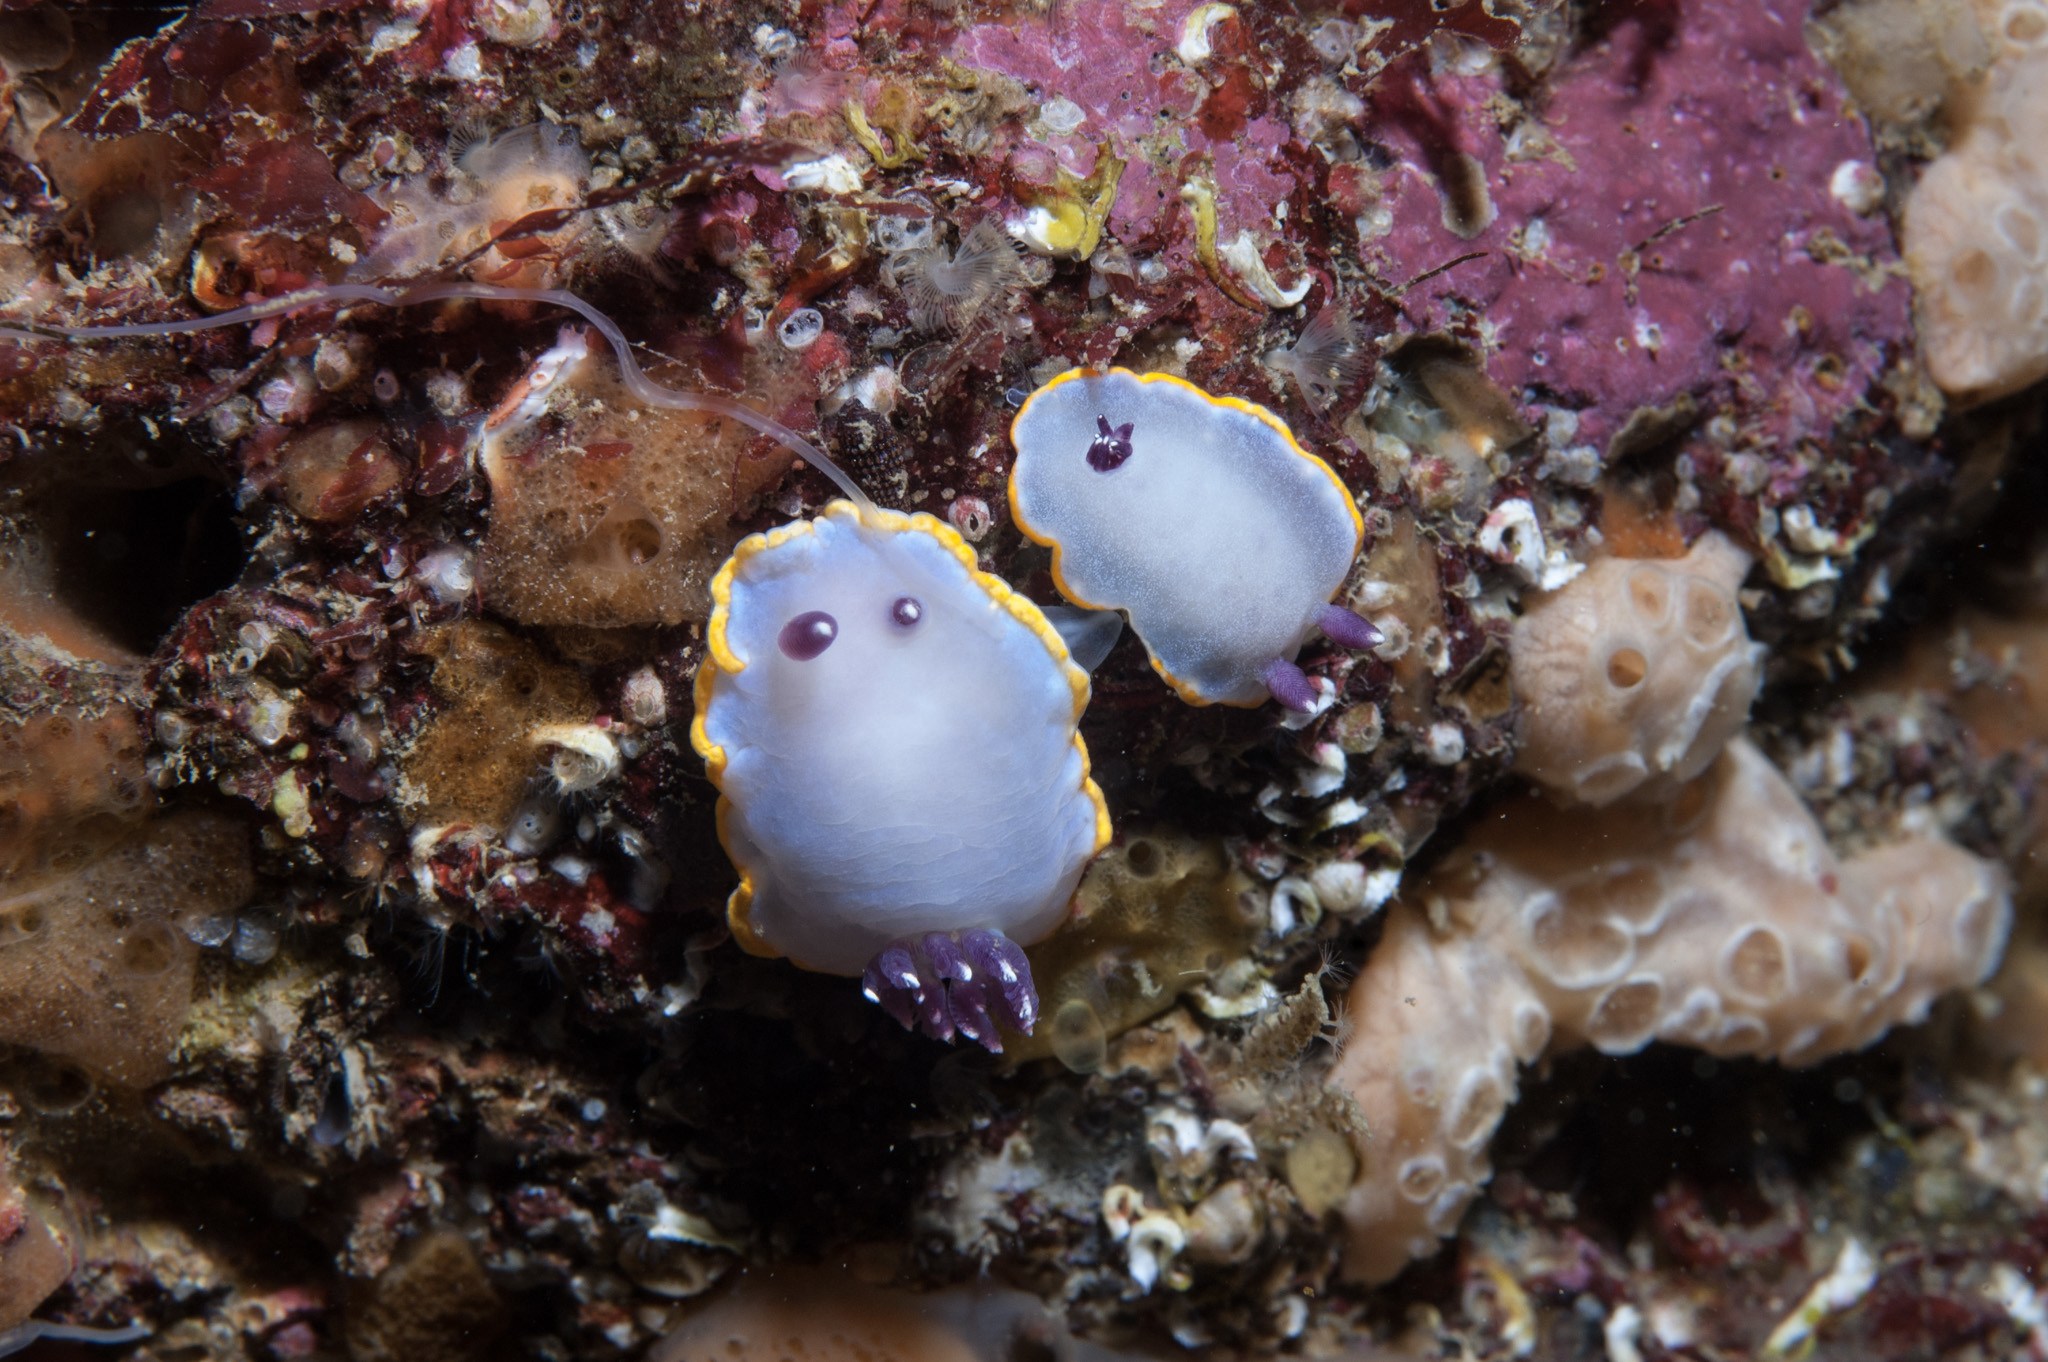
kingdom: Animalia
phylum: Mollusca
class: Gastropoda
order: Nudibranchia
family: Chromodorididae
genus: Felimida
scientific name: Felimida purpurea
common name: Pink doris
